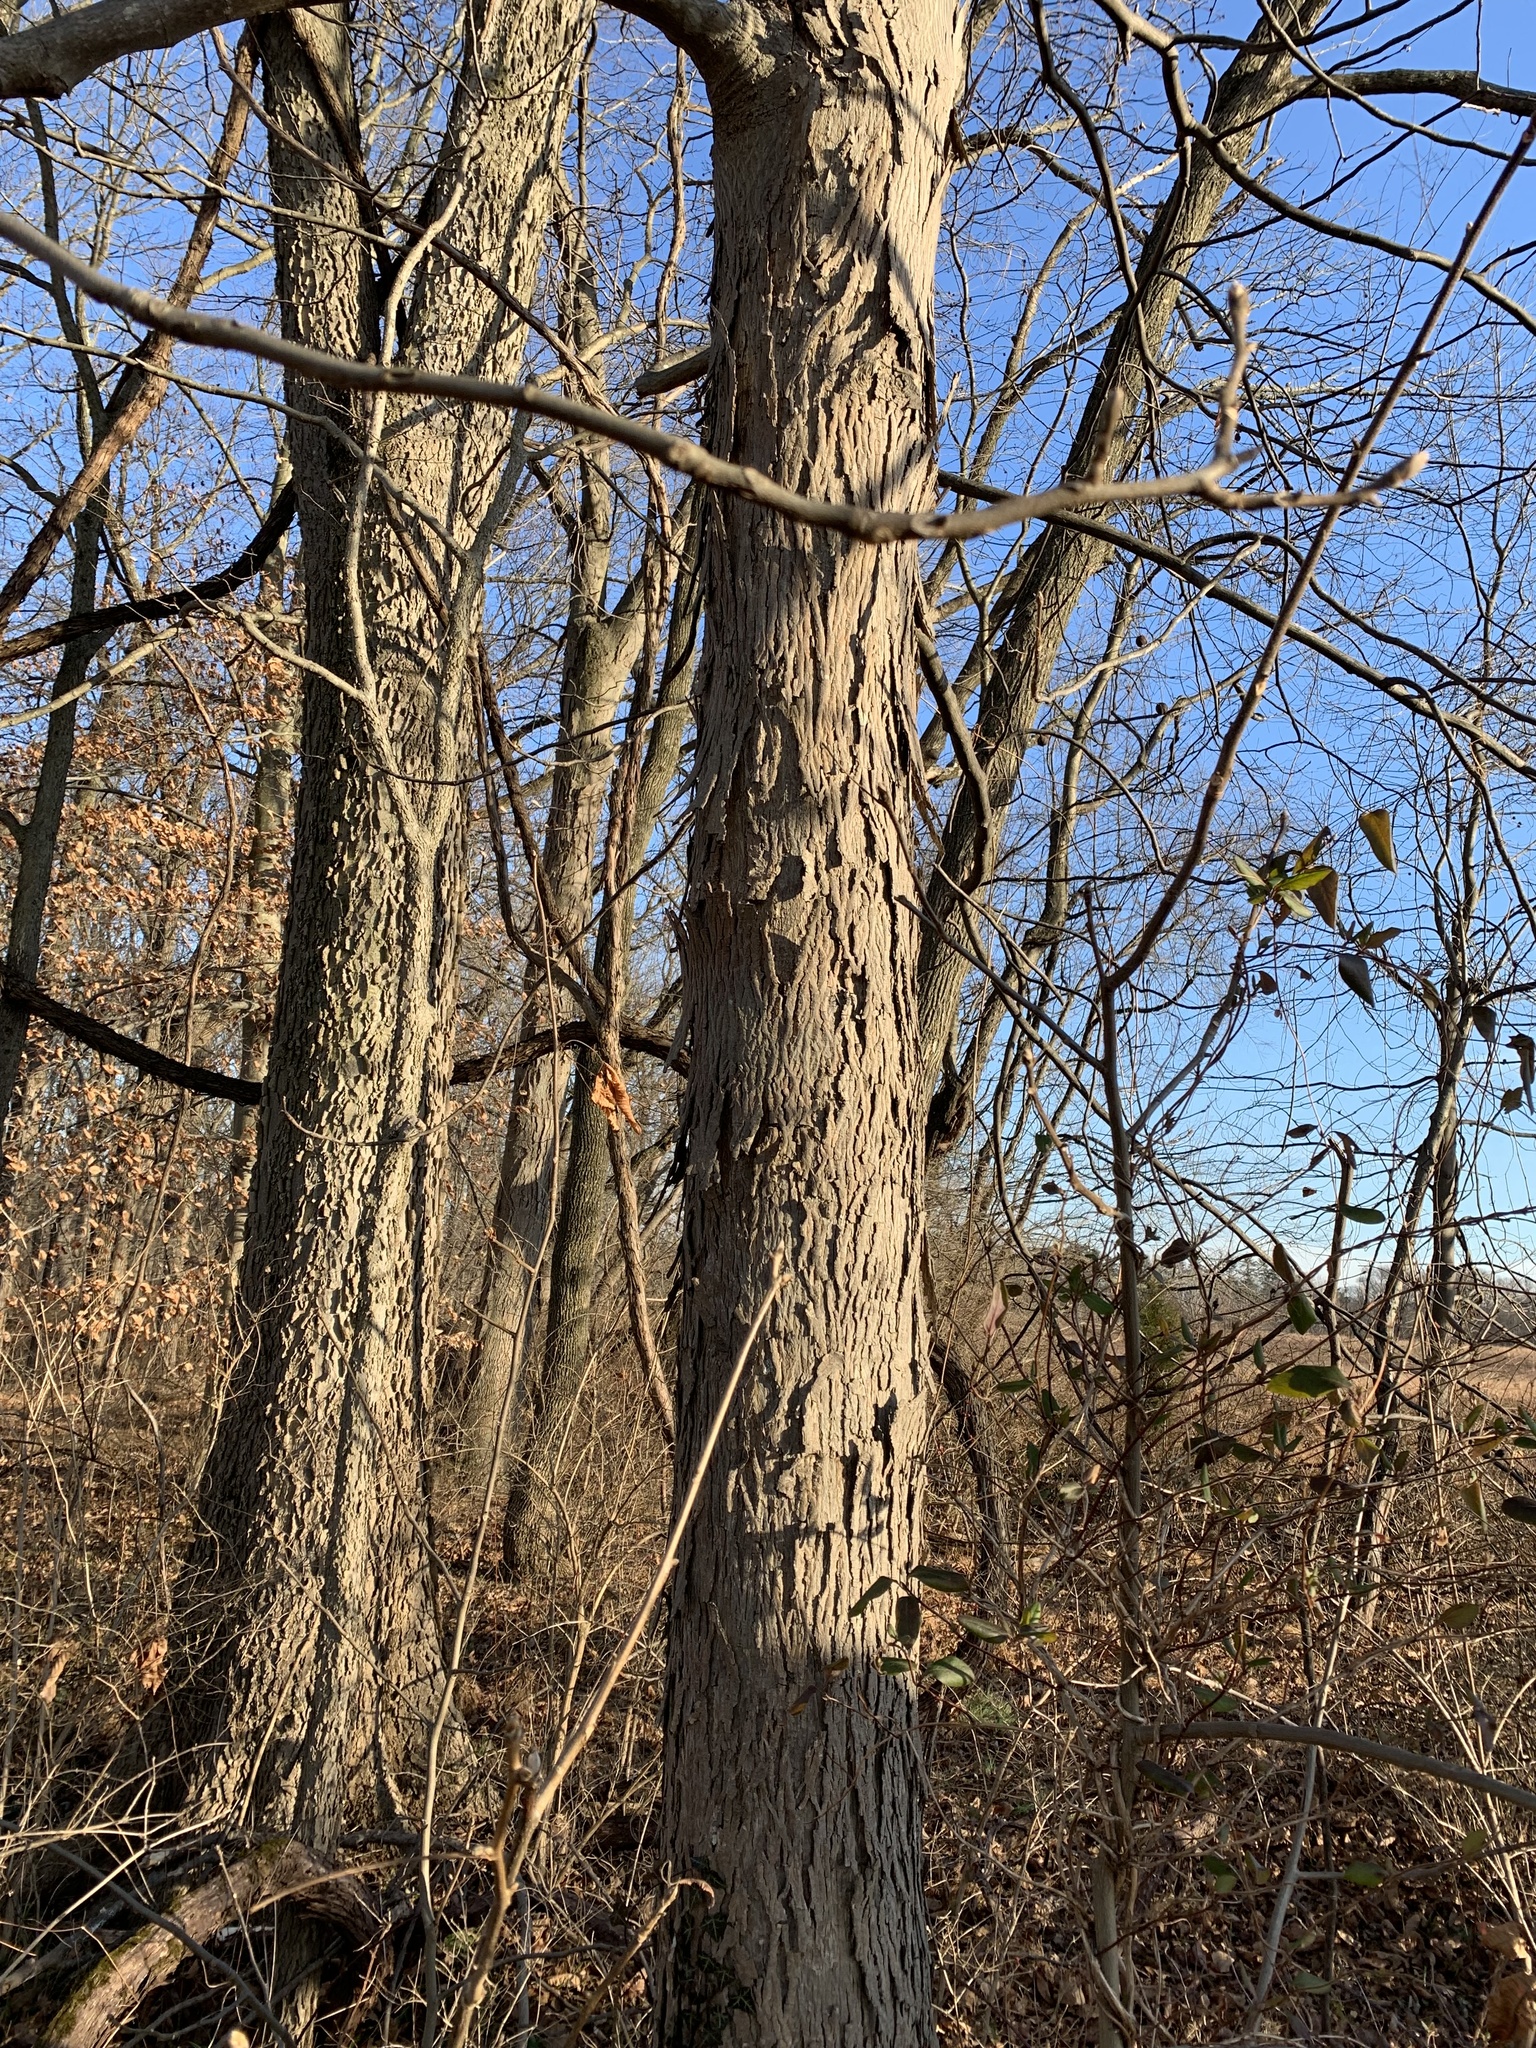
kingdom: Plantae
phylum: Tracheophyta
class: Magnoliopsida
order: Fagales
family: Juglandaceae
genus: Carya
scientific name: Carya ovata
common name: Shagbark hickory
